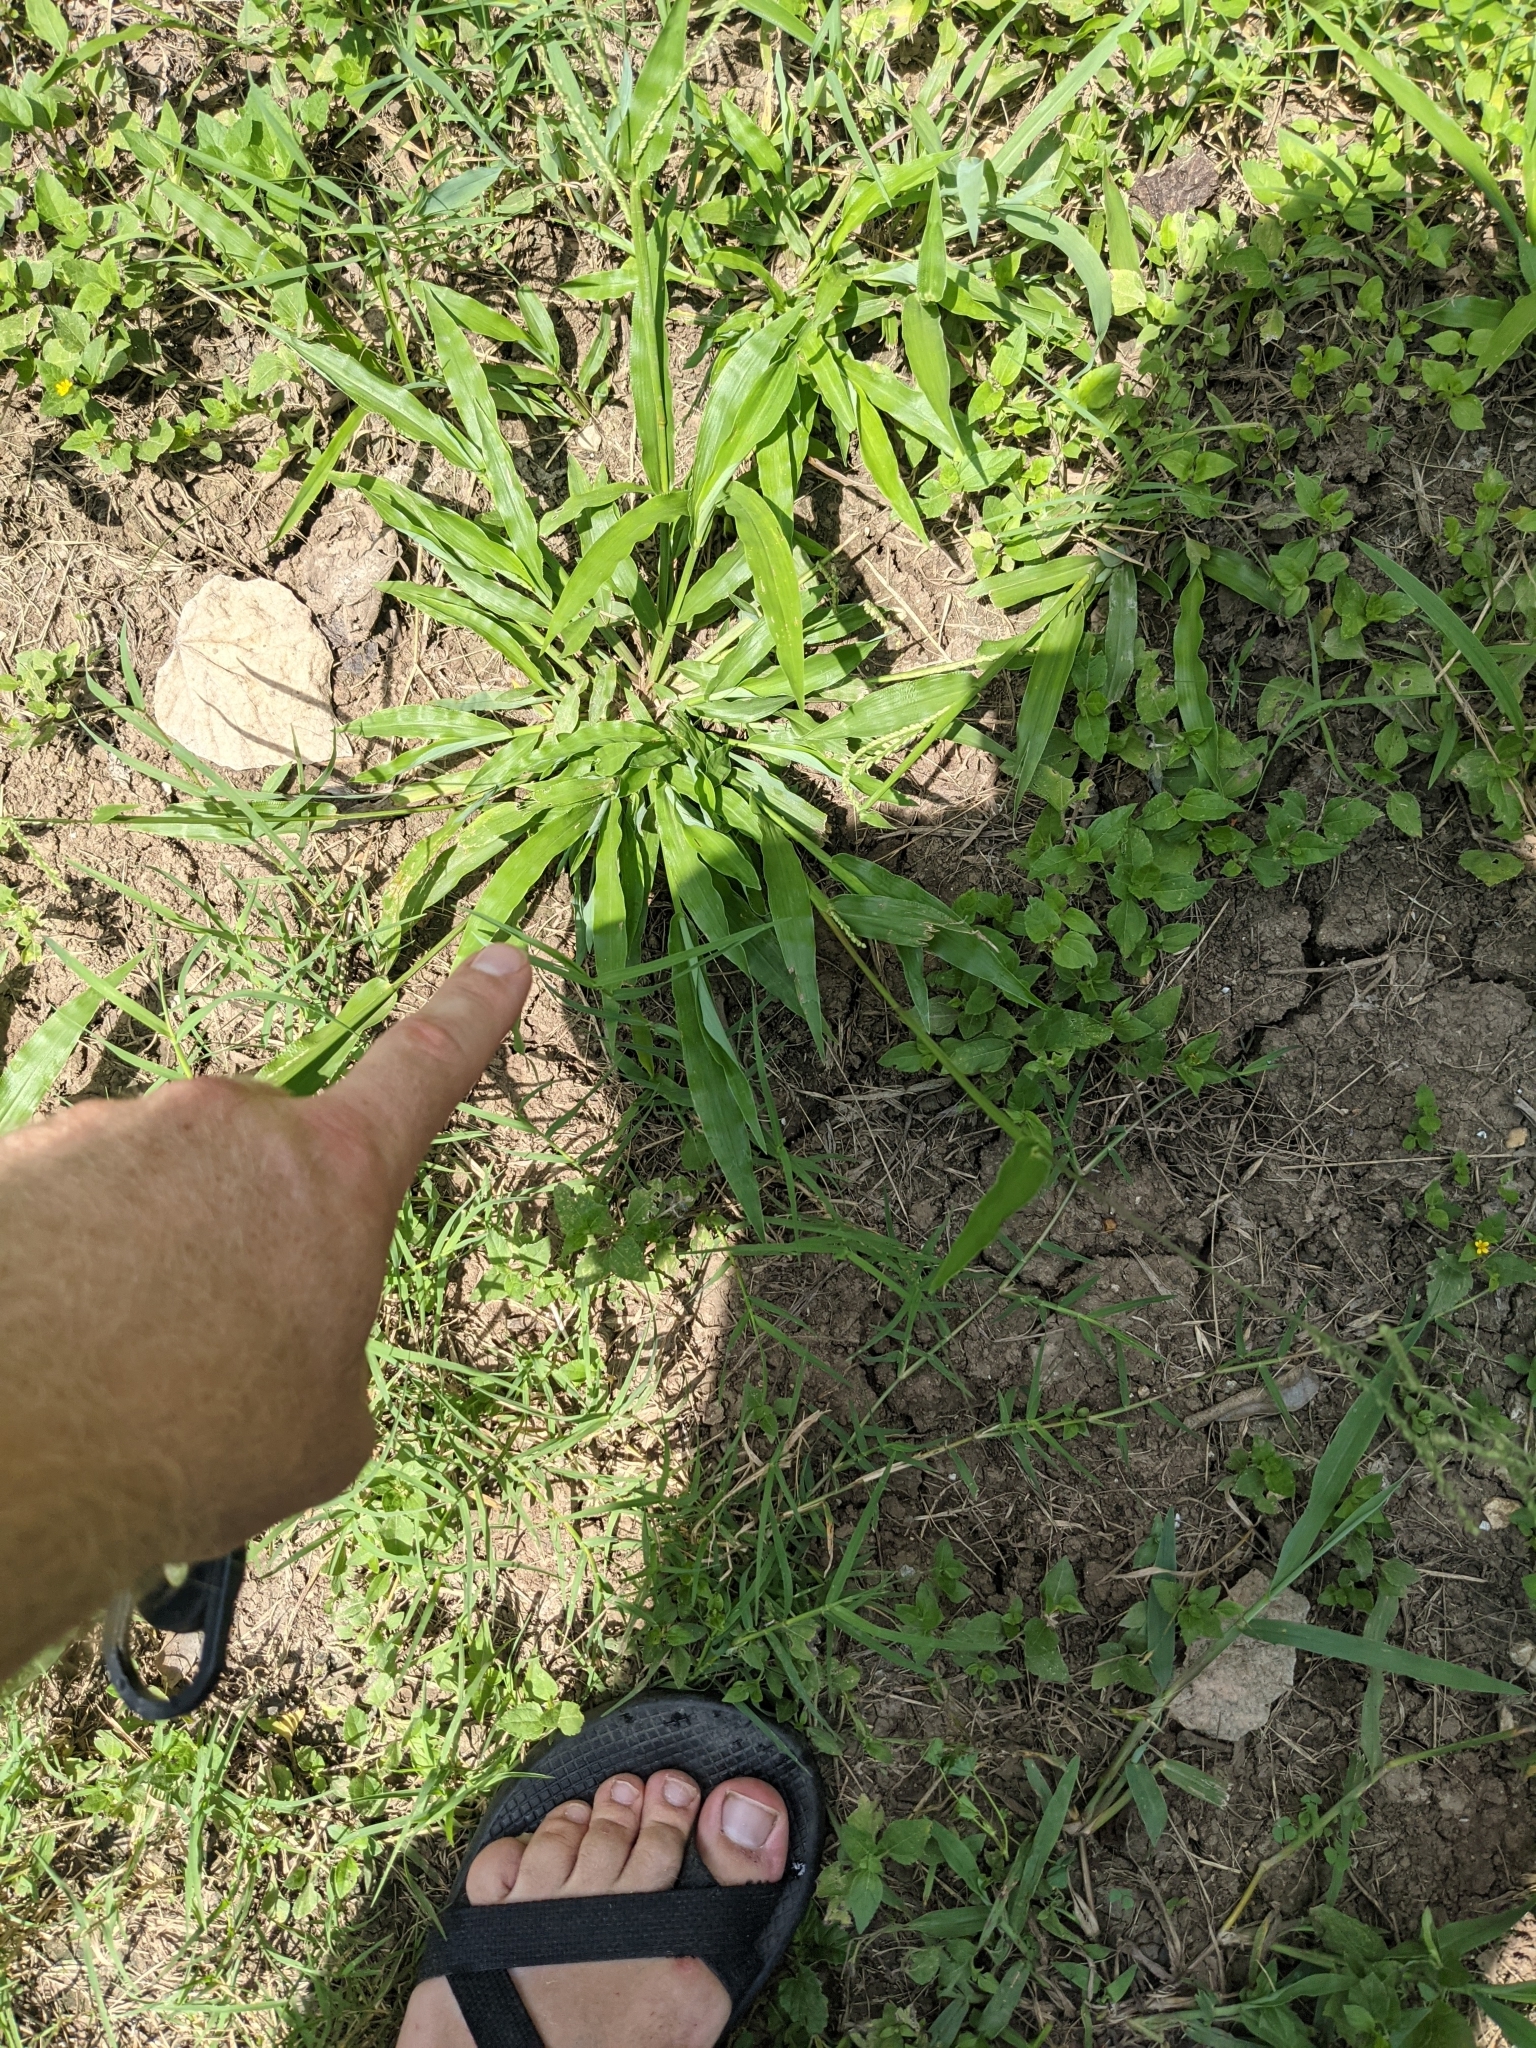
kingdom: Plantae
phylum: Tracheophyta
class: Liliopsida
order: Poales
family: Poaceae
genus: Paspalum
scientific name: Paspalum langei
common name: Rusty-seed paspalum
